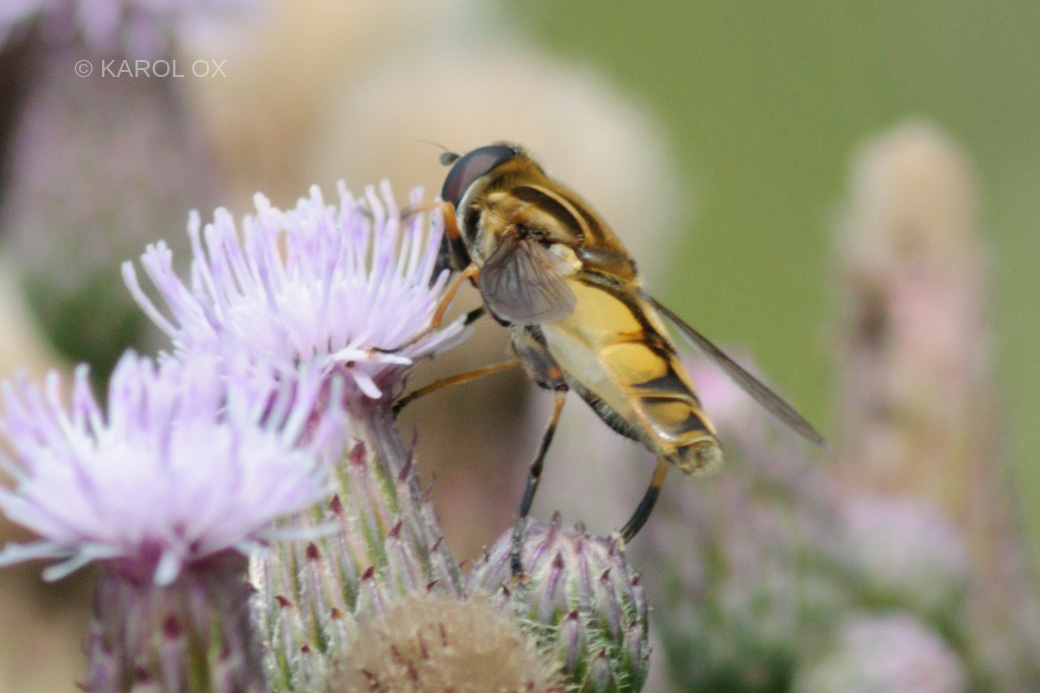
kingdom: Animalia
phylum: Arthropoda
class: Insecta
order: Diptera
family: Syrphidae
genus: Helophilus
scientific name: Helophilus hybridus
